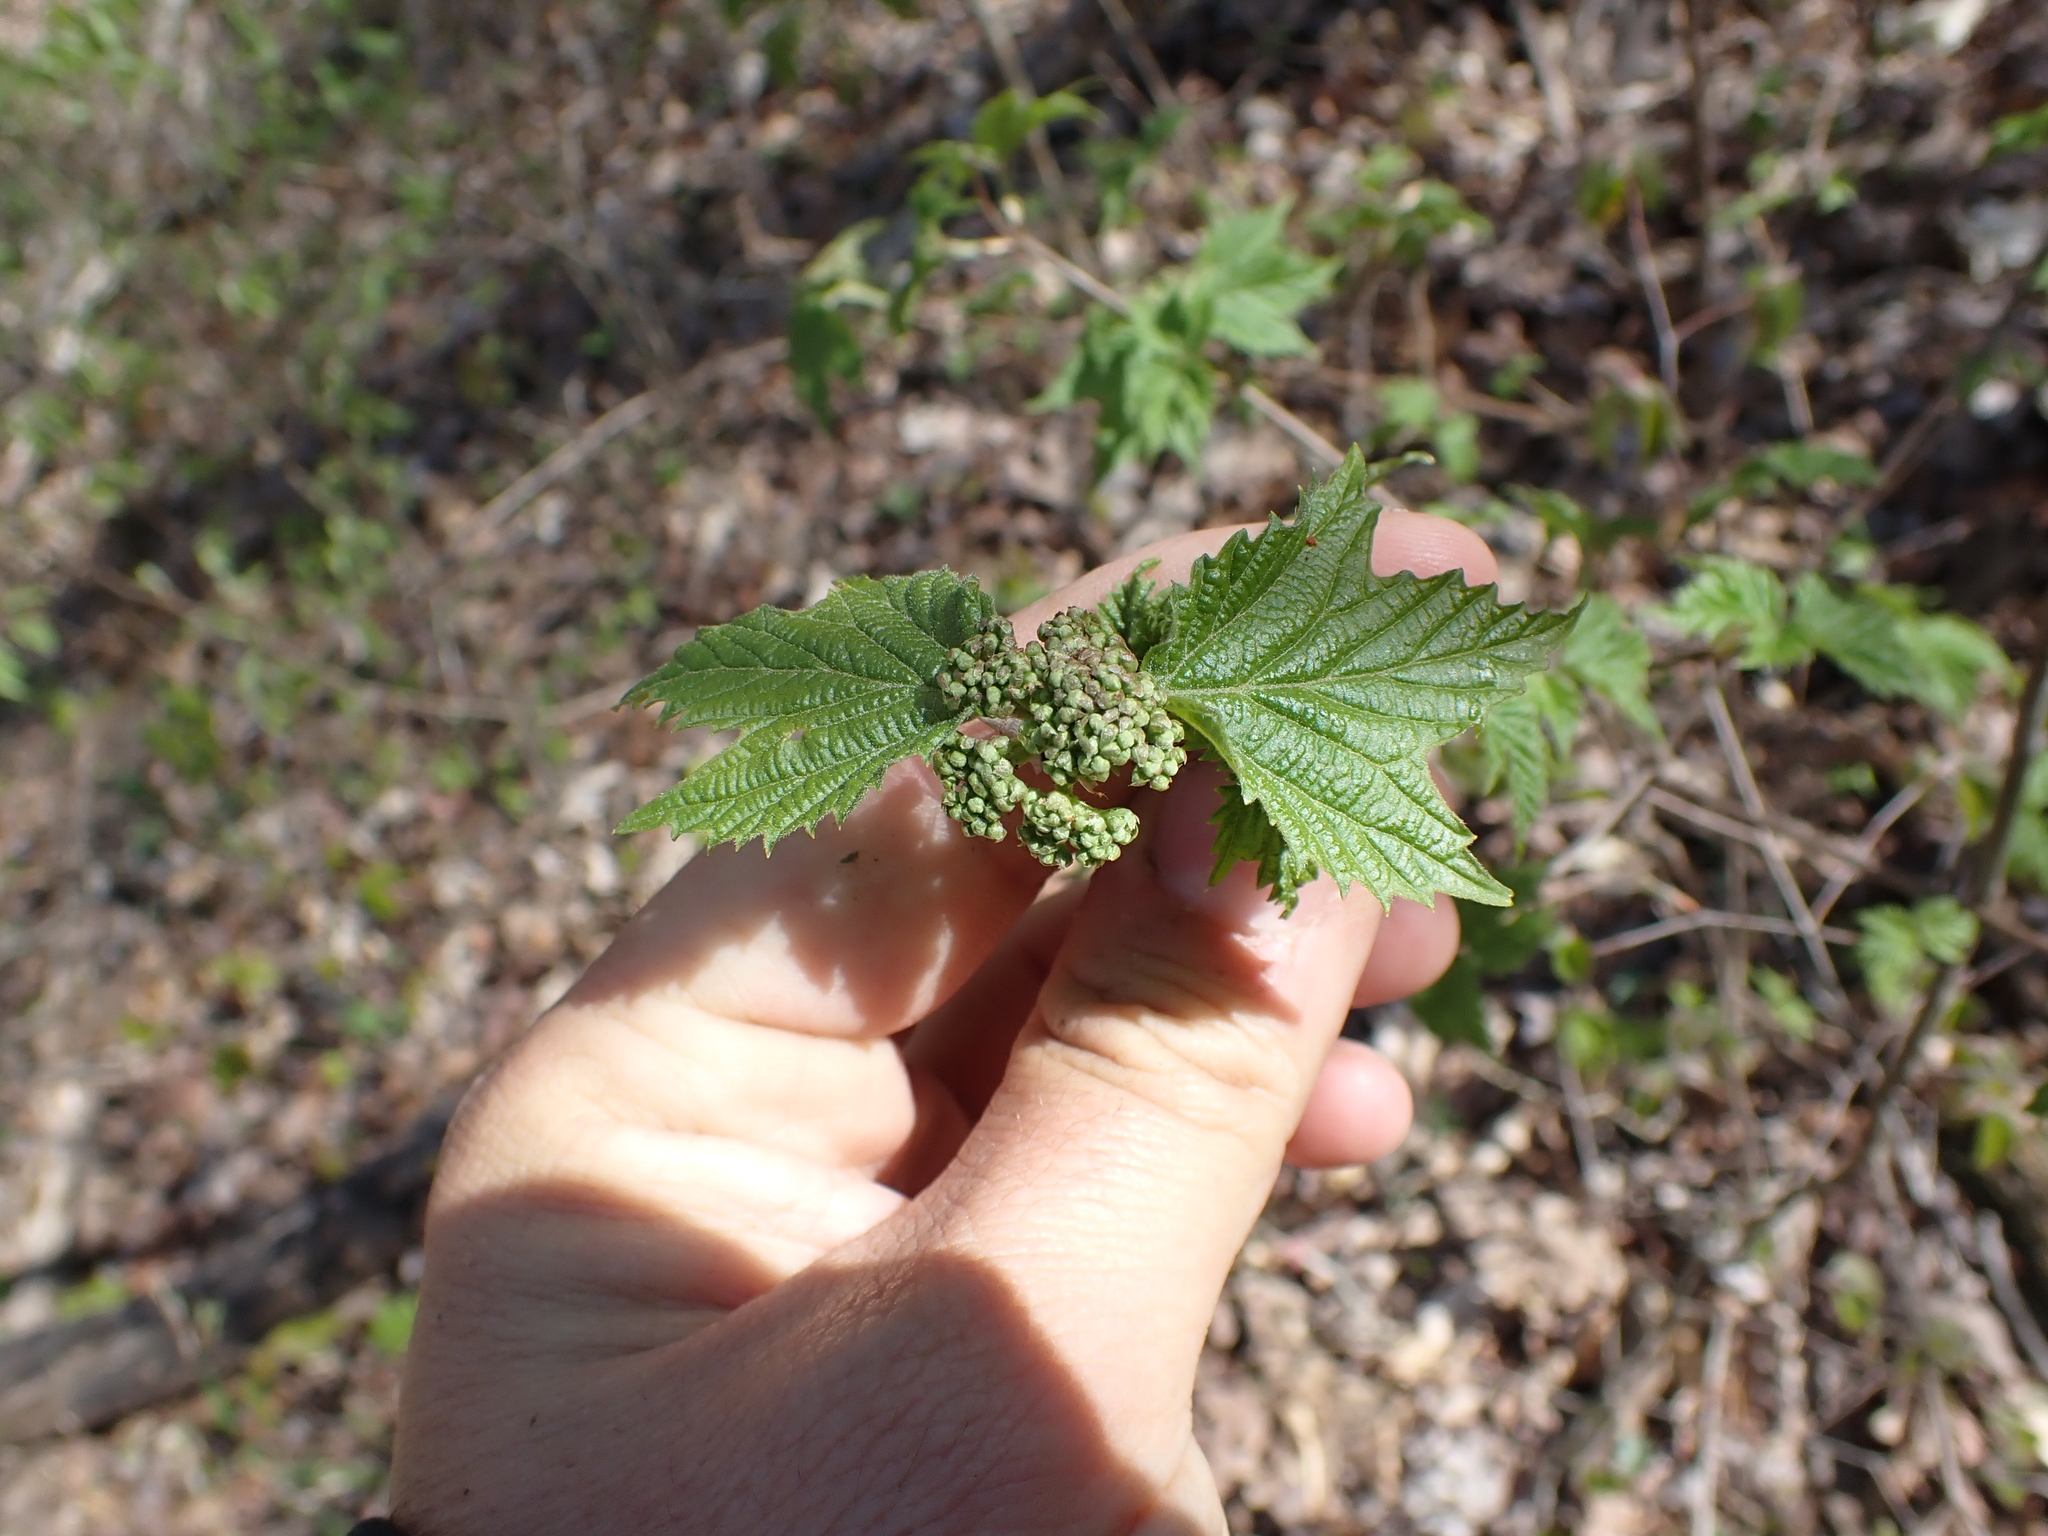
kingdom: Plantae
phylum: Tracheophyta
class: Magnoliopsida
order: Dipsacales
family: Viburnaceae
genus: Viburnum
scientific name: Viburnum acerifolium
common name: Dockmackie
